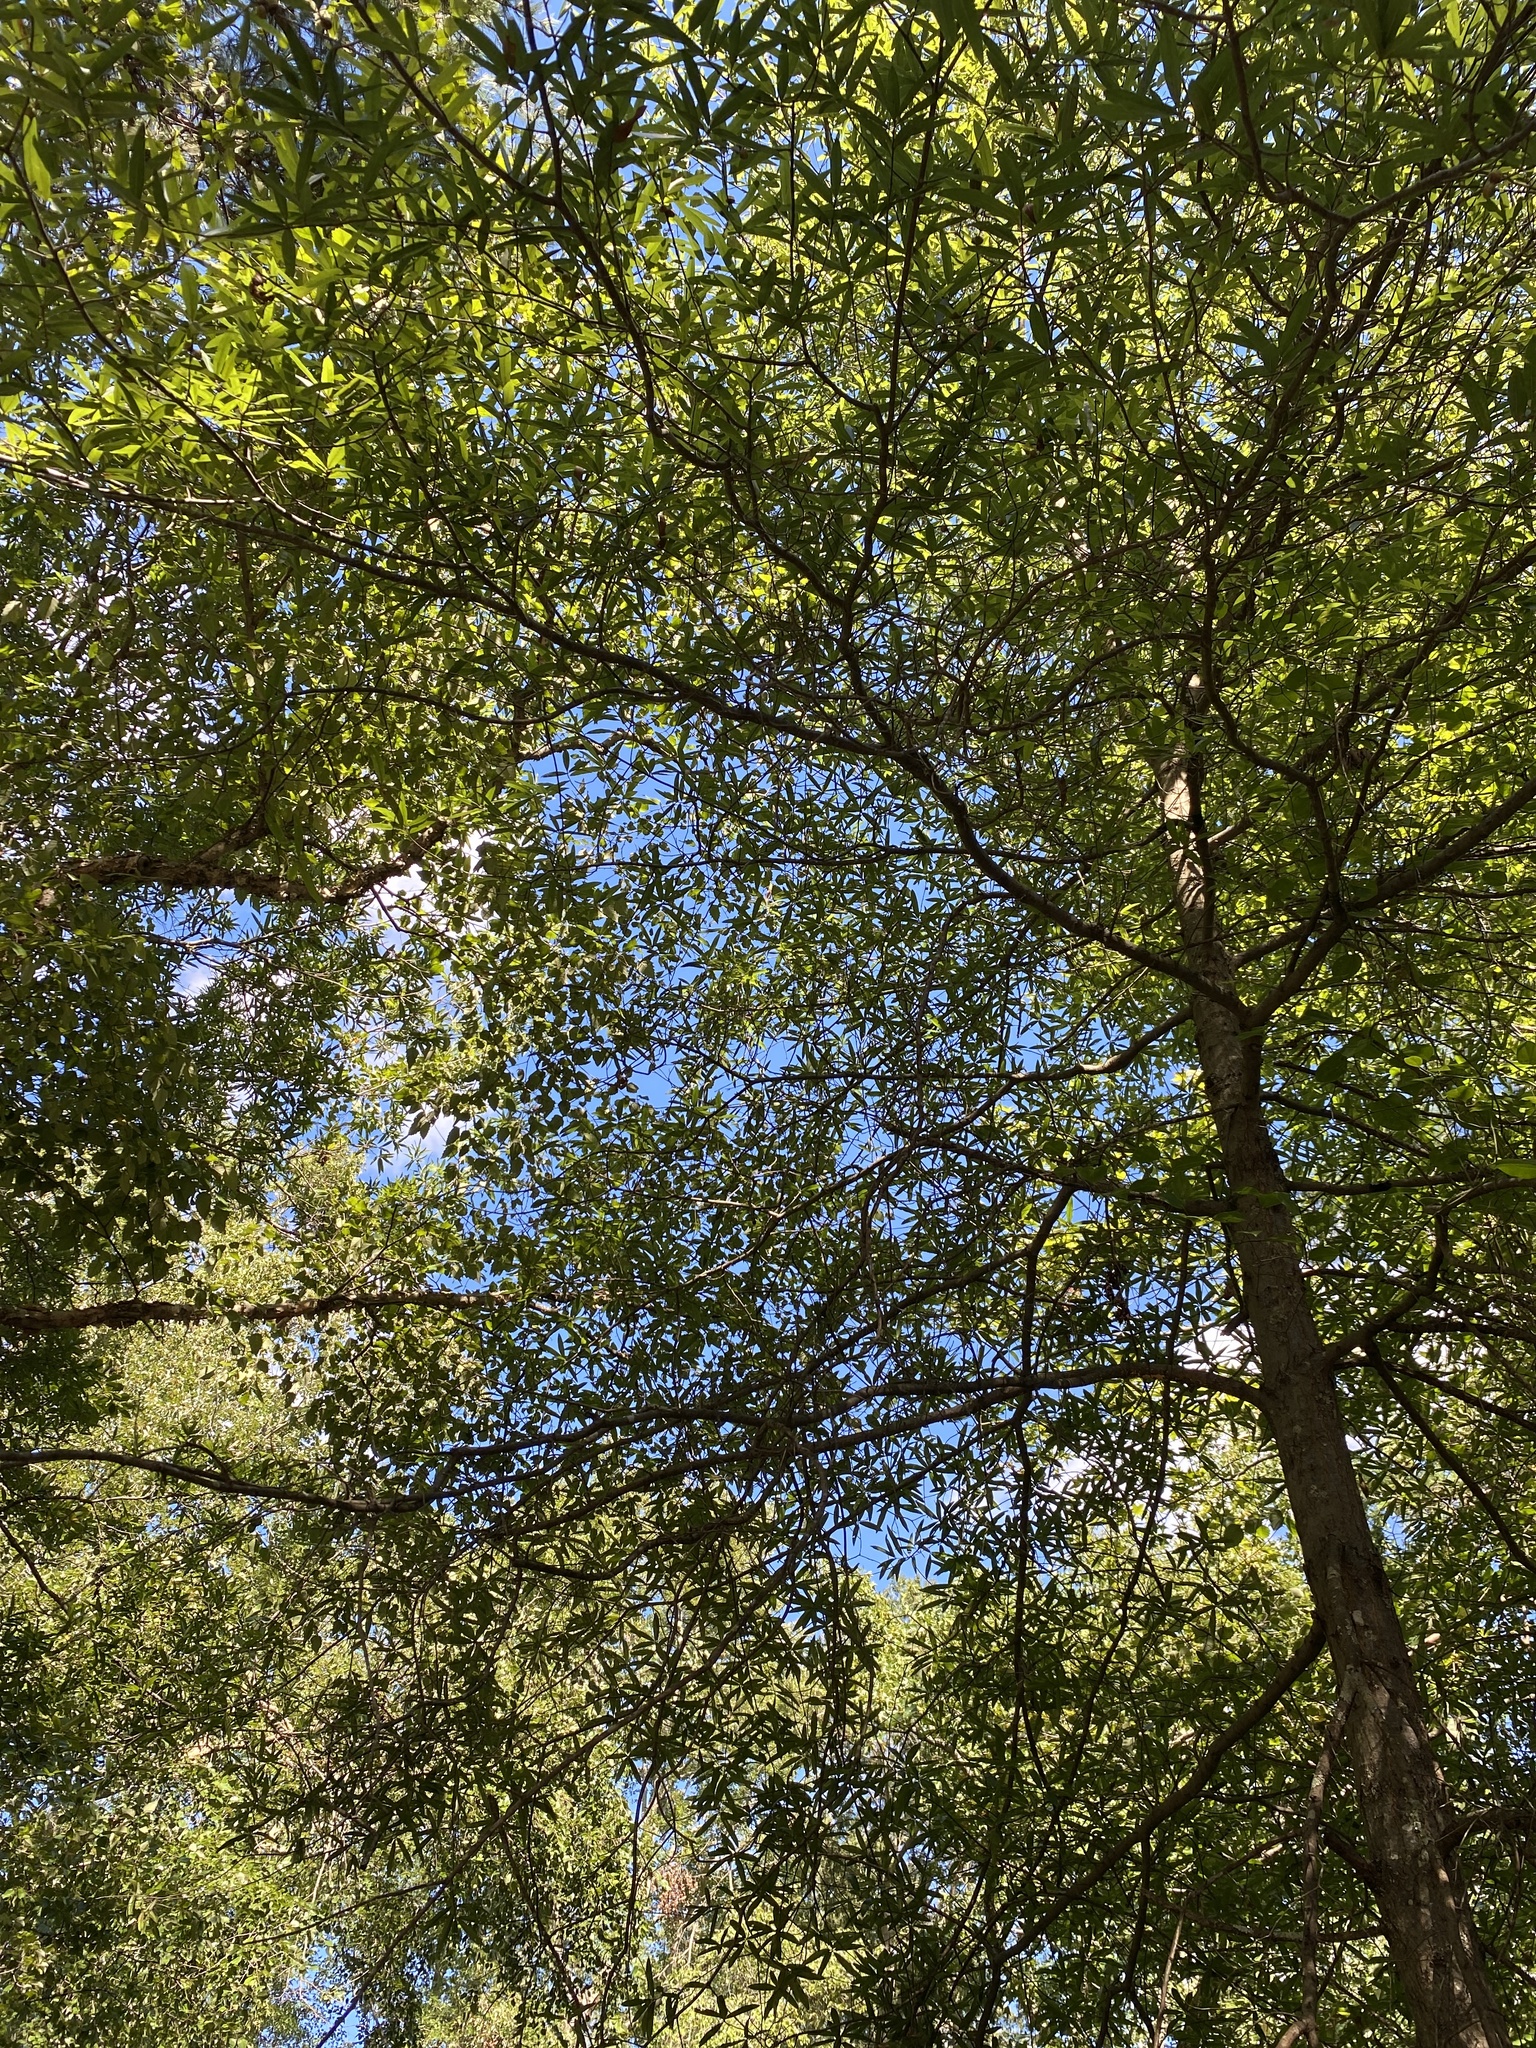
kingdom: Plantae
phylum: Tracheophyta
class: Magnoliopsida
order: Fagales
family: Fagaceae
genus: Quercus
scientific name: Quercus phellos
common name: Willow oak
